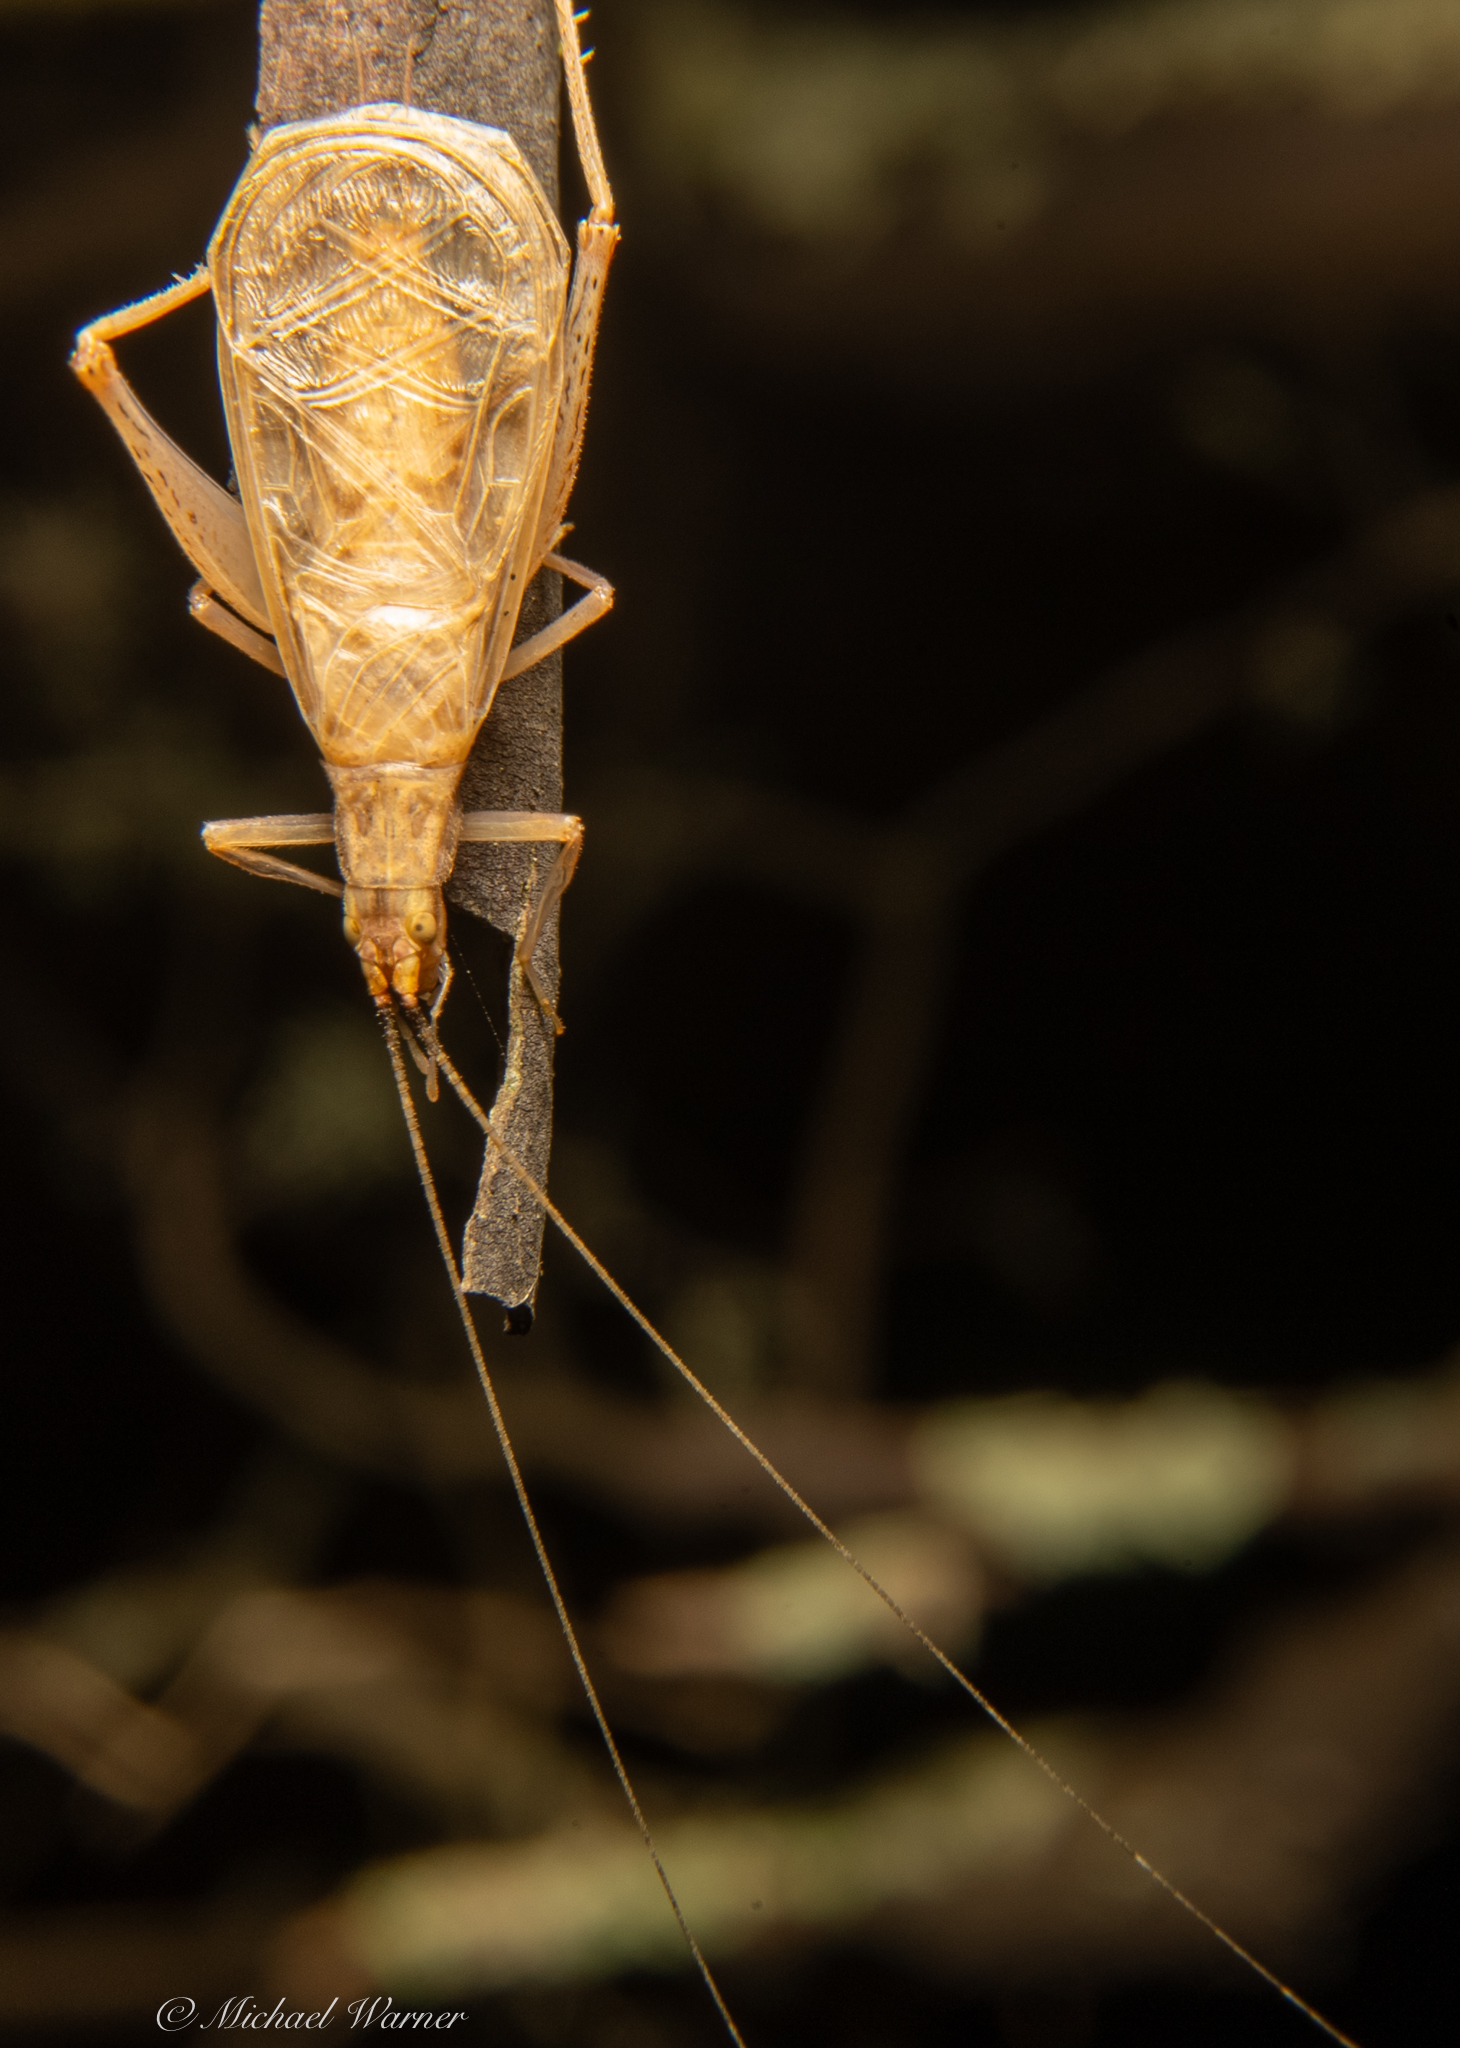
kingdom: Animalia
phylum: Arthropoda
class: Insecta
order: Orthoptera
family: Gryllidae
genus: Oecanthus
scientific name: Oecanthus californicus
